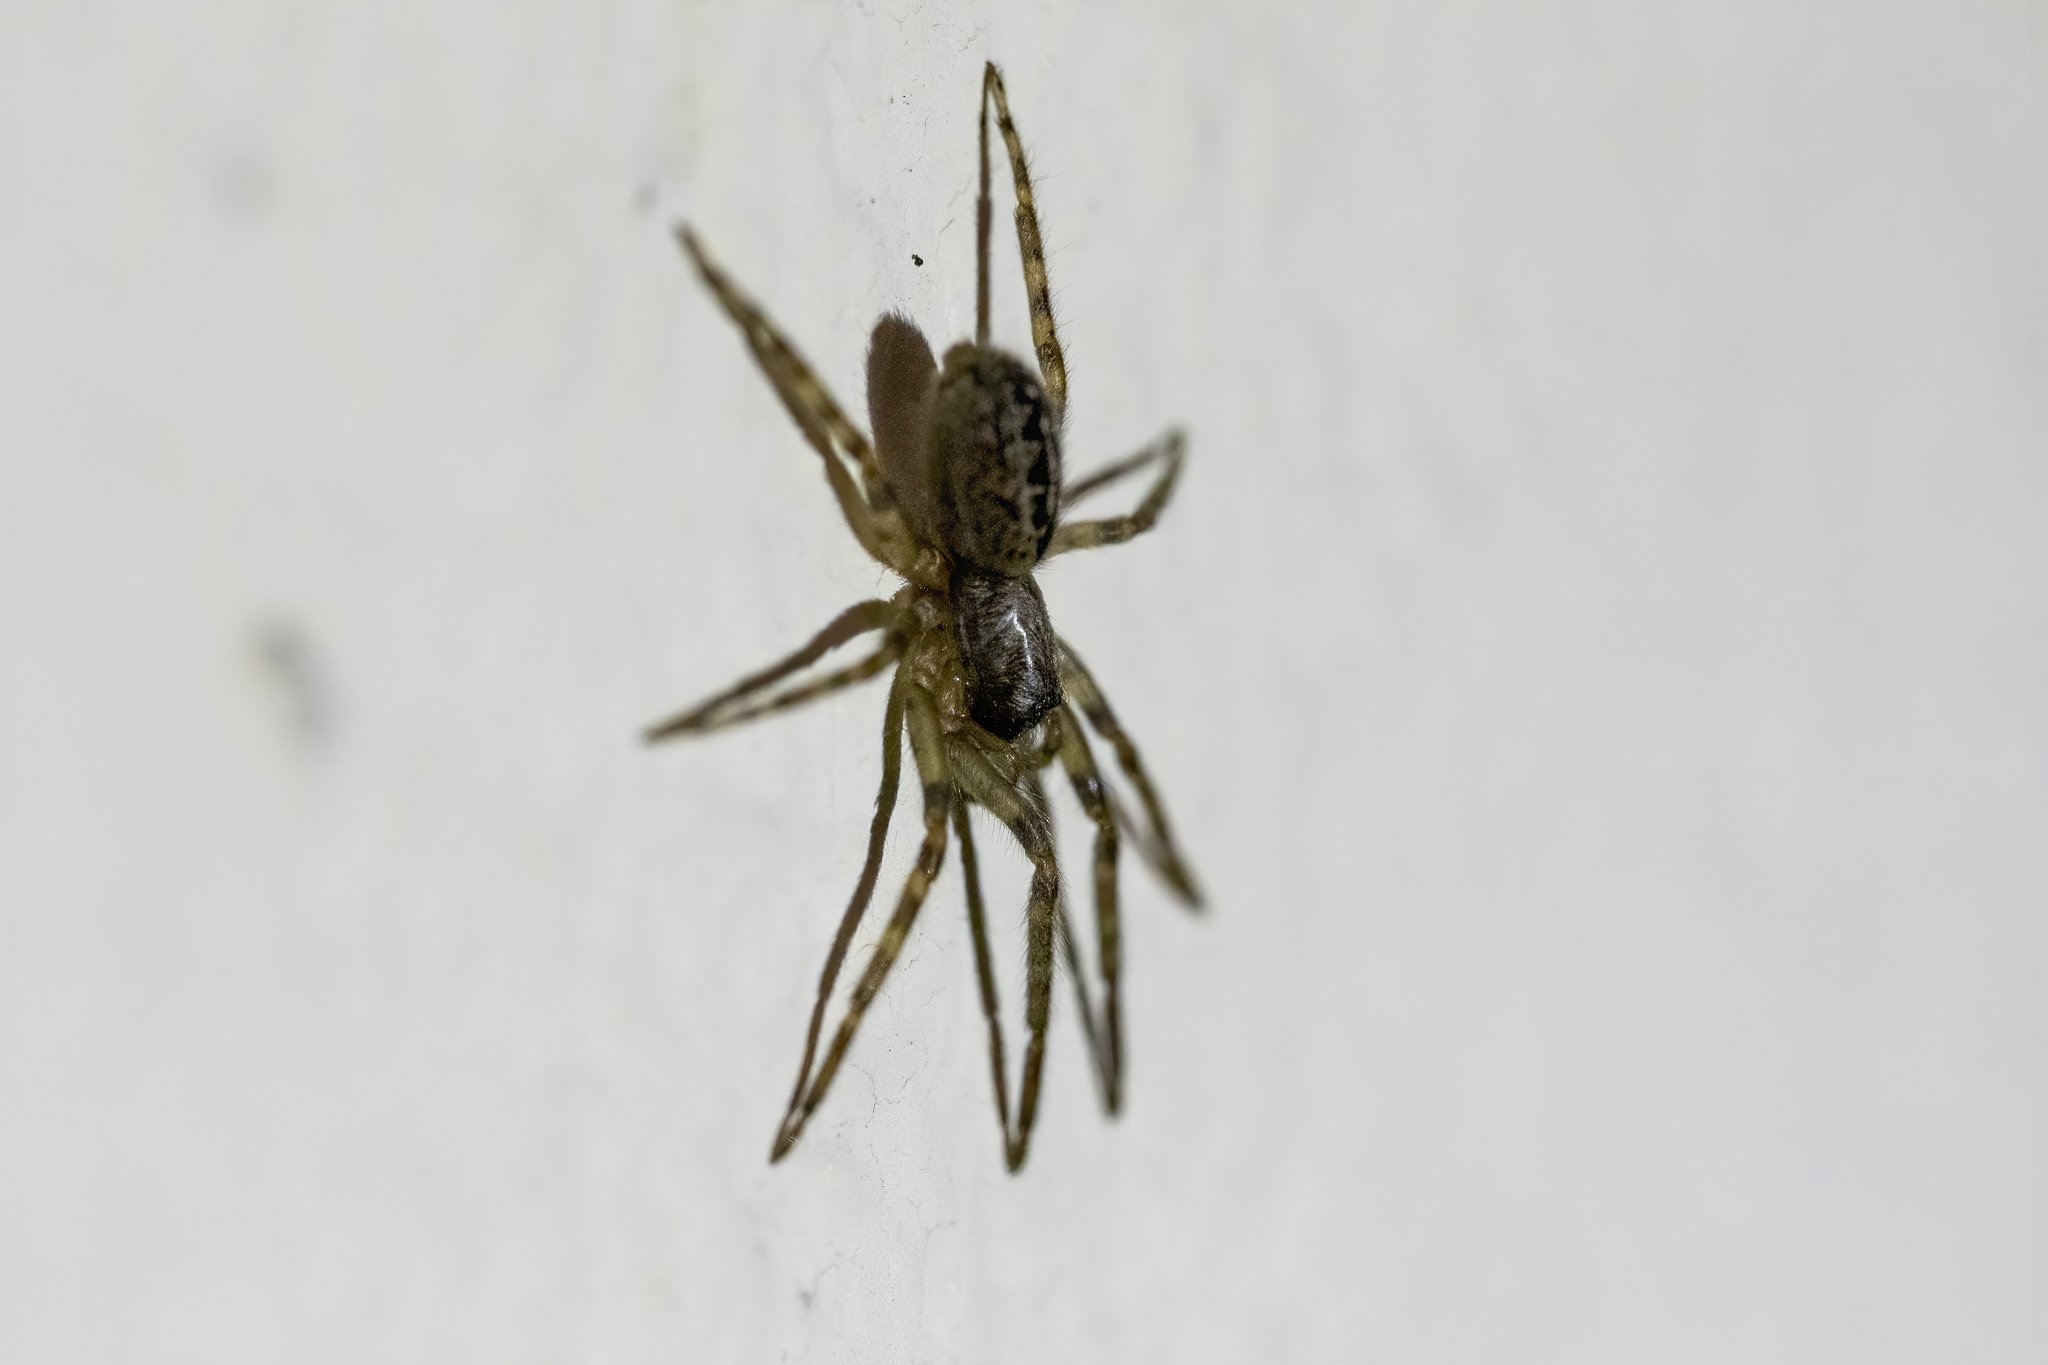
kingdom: Animalia
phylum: Arthropoda
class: Arachnida
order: Araneae
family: Zoropsidae
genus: Zoropsis
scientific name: Zoropsis spinimana
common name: Zoropsid spider
